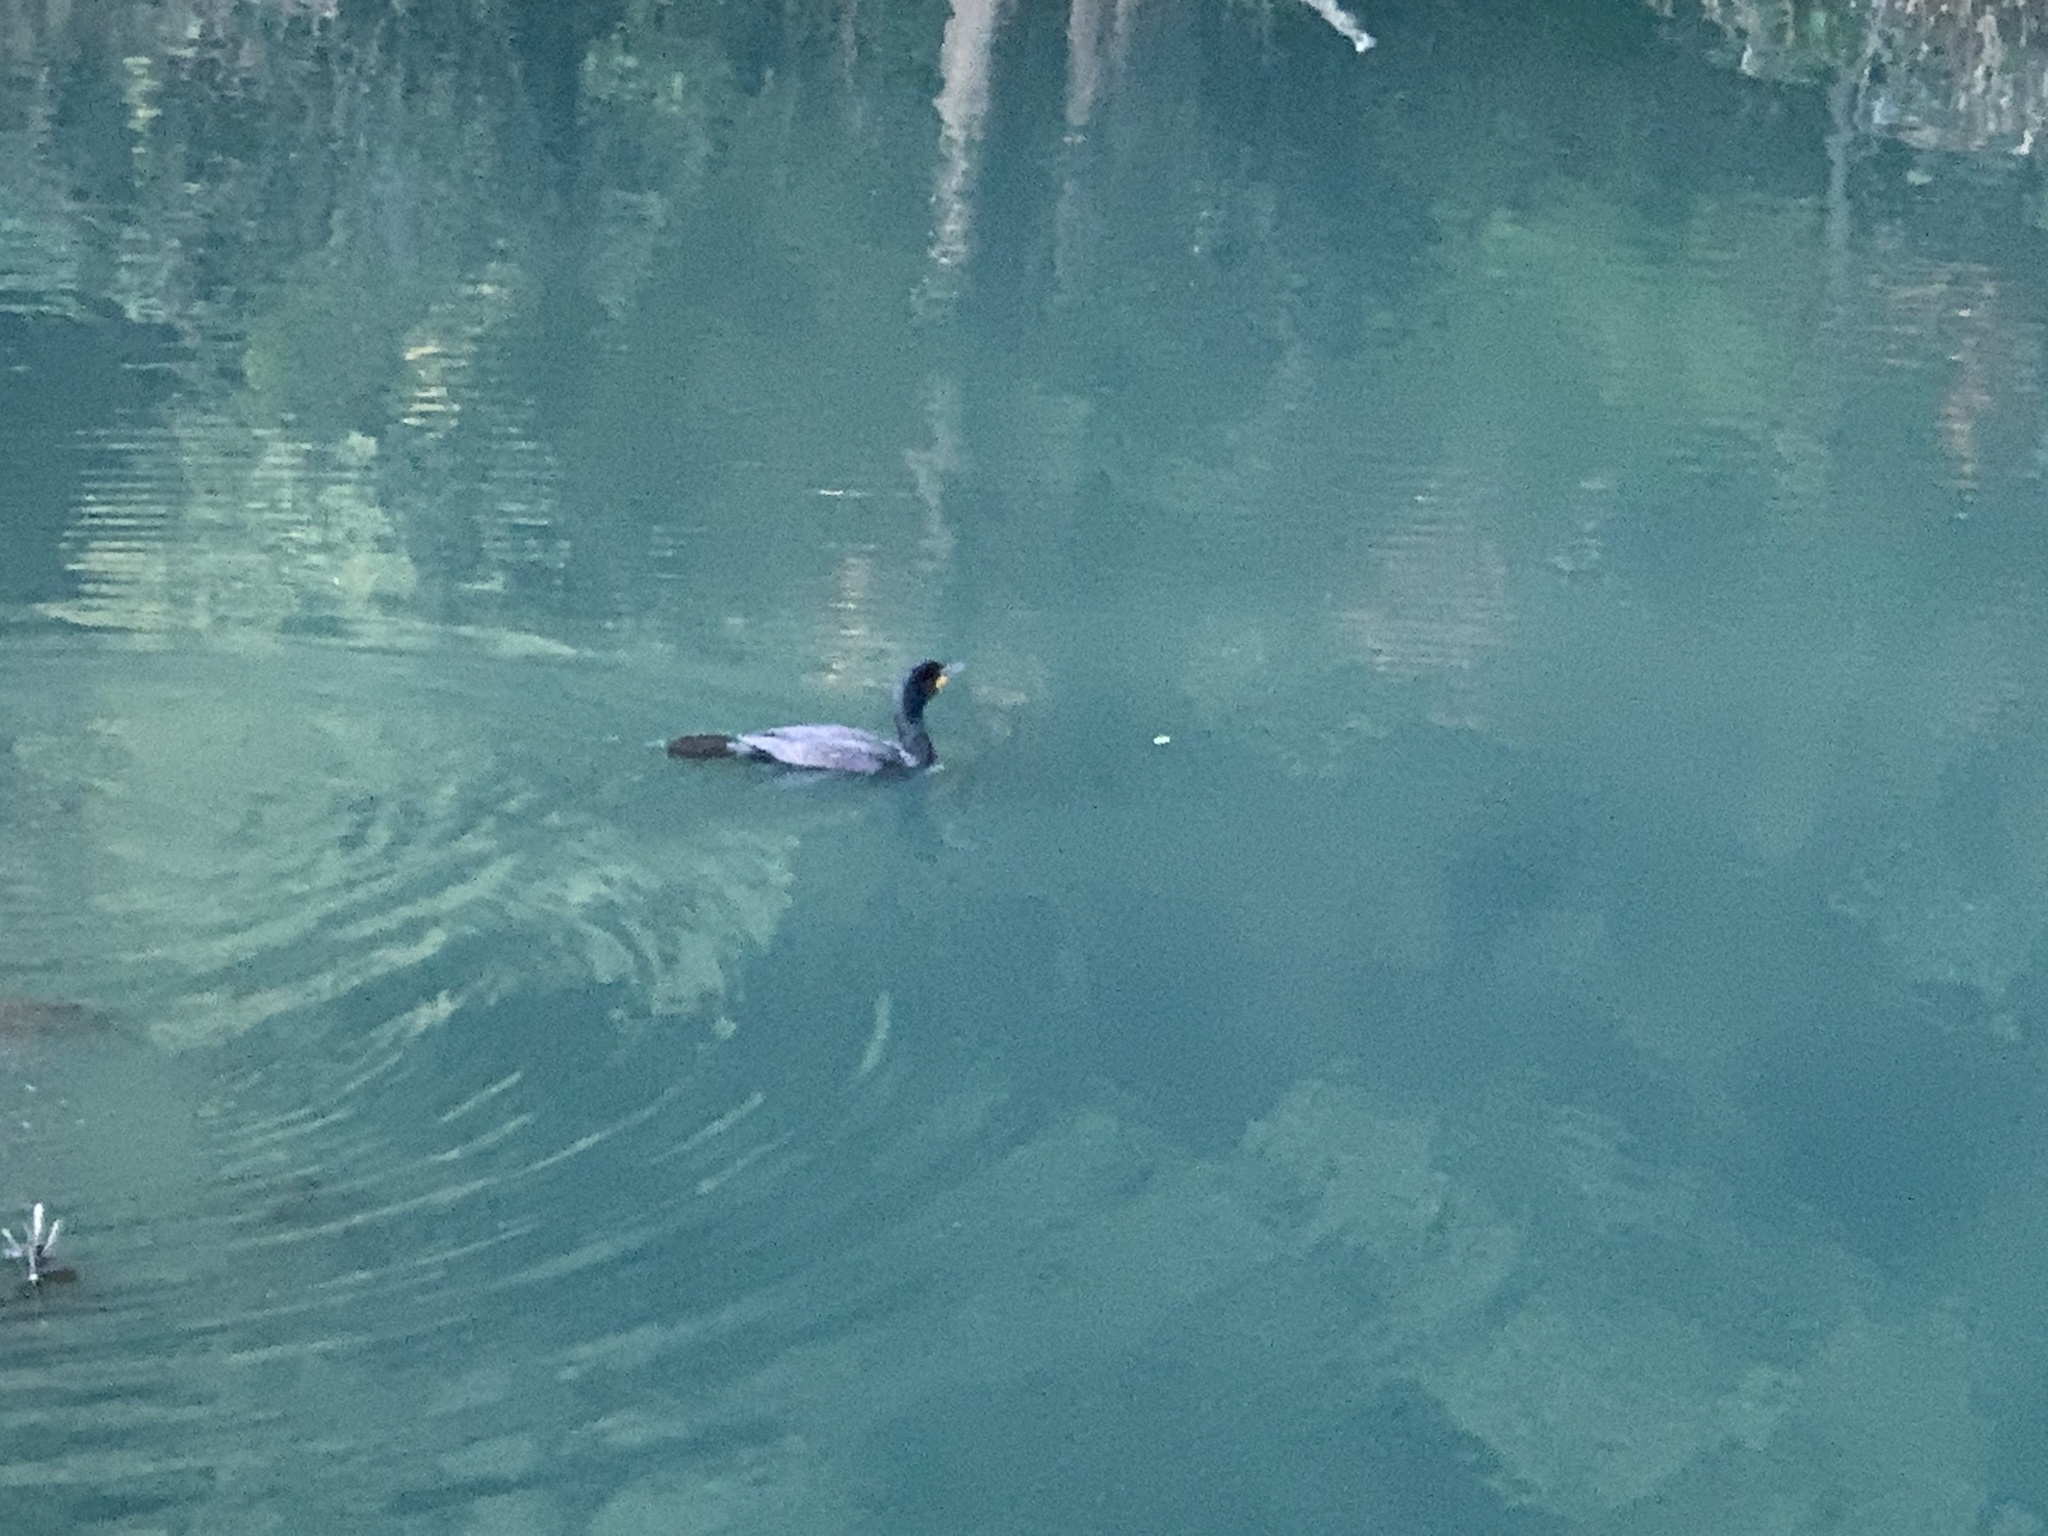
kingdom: Animalia
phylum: Chordata
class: Aves
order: Suliformes
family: Phalacrocoracidae
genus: Phalacrocorax
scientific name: Phalacrocorax auritus
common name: Double-crested cormorant
